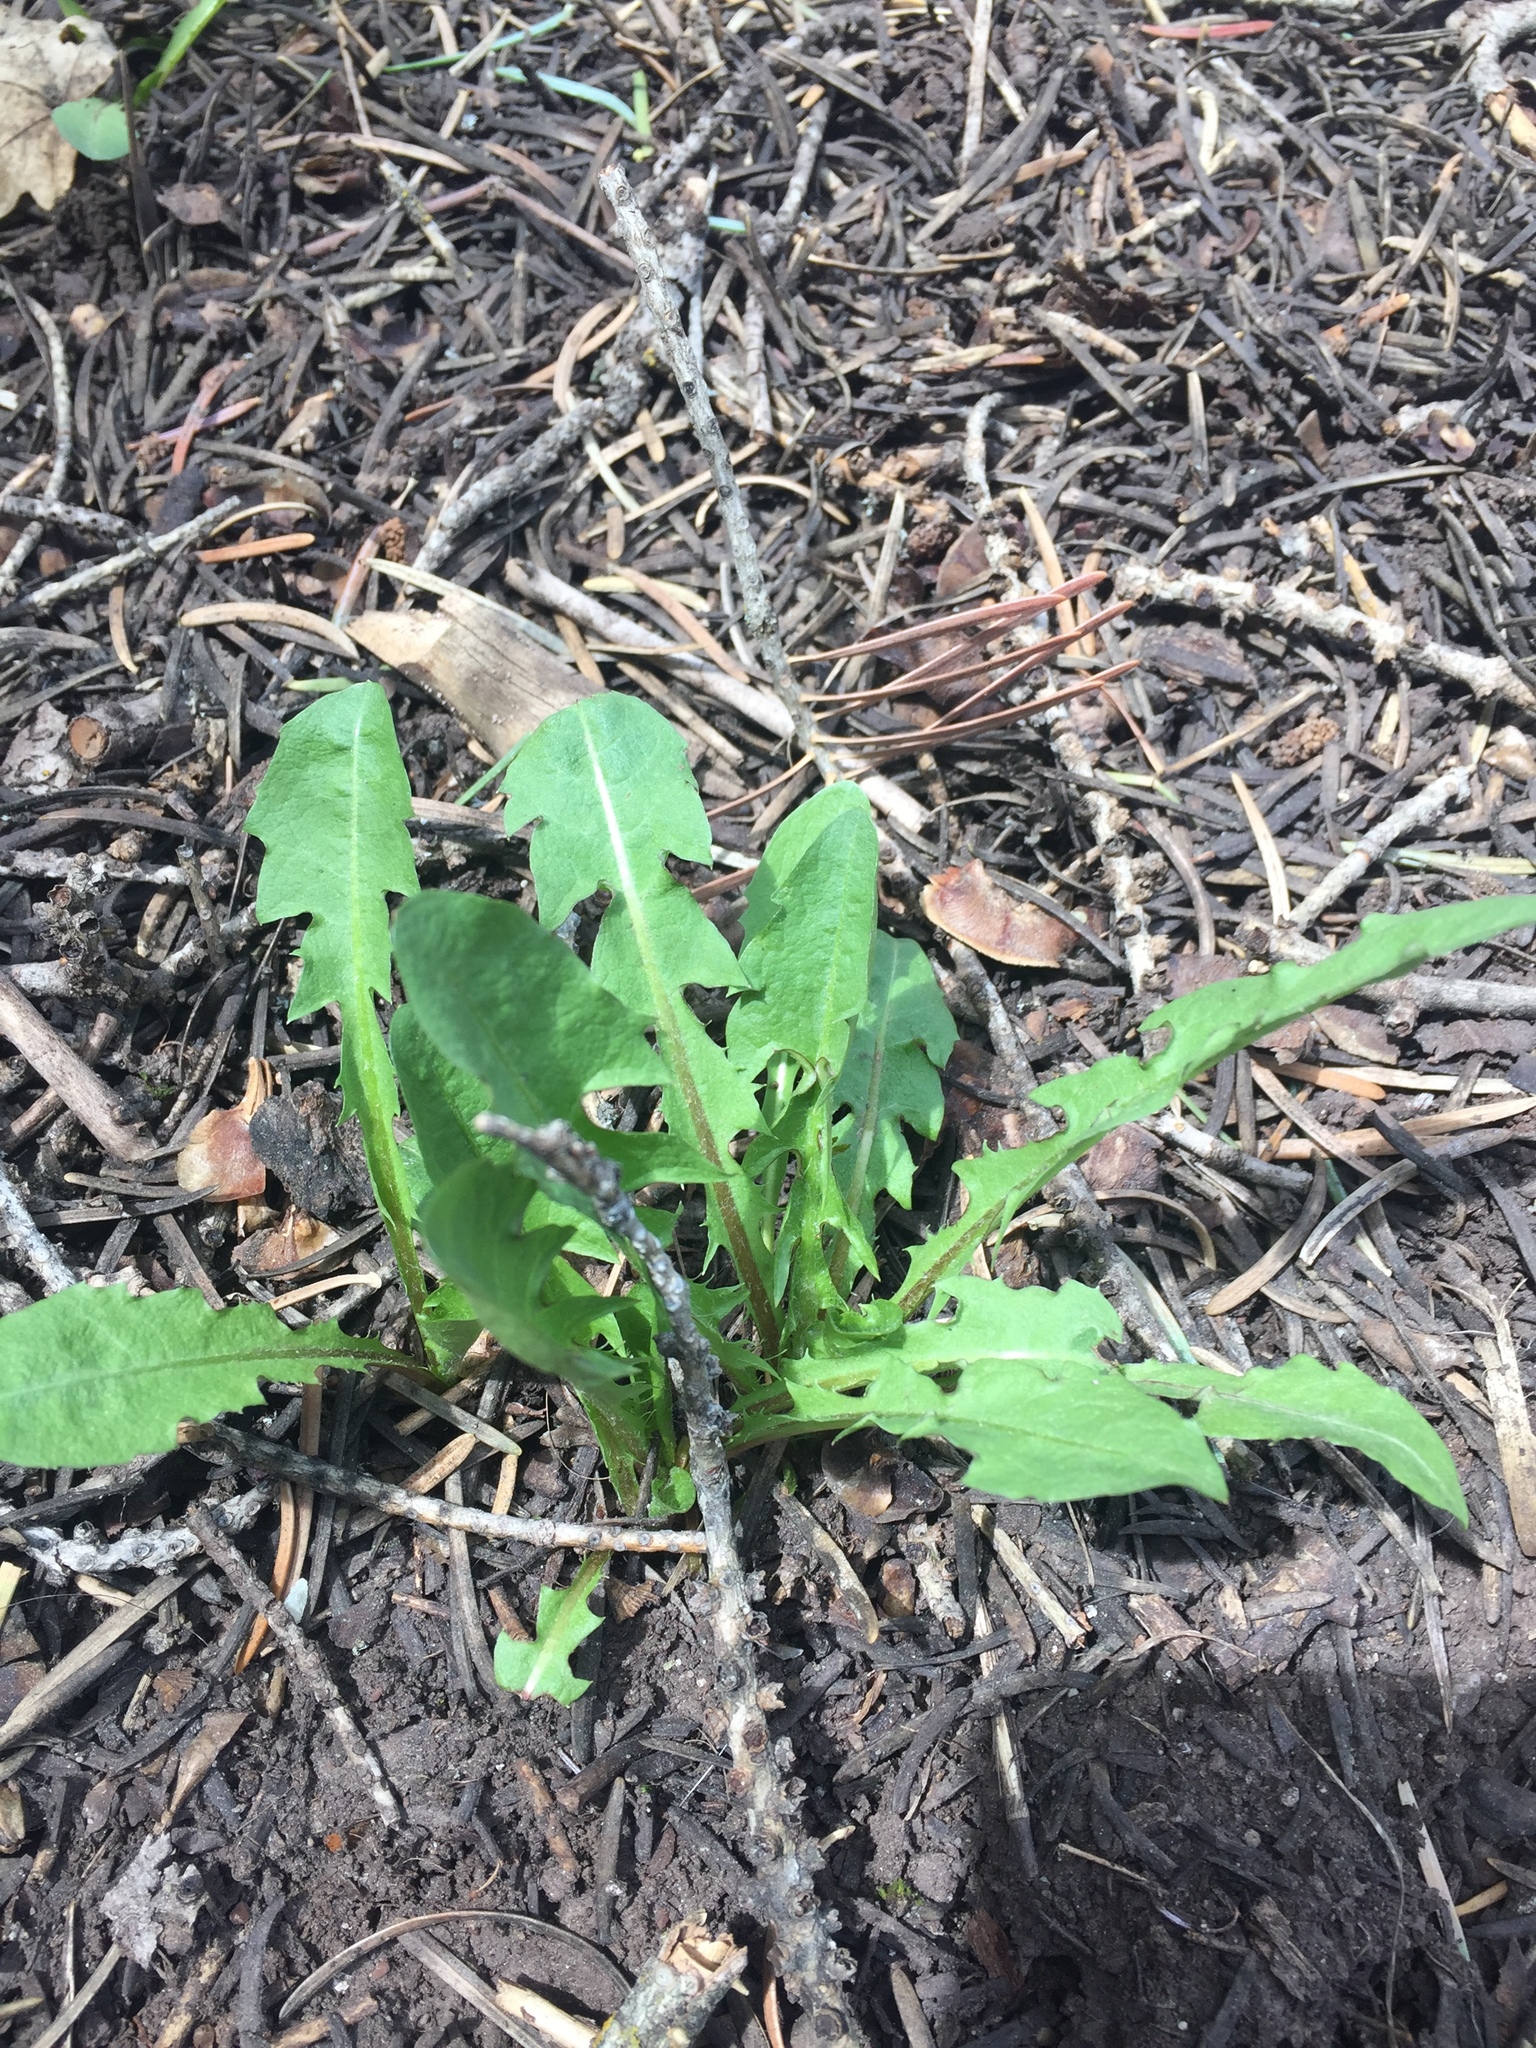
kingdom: Plantae
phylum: Tracheophyta
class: Magnoliopsida
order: Asterales
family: Asteraceae
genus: Taraxacum
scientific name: Taraxacum officinale
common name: Common dandelion
